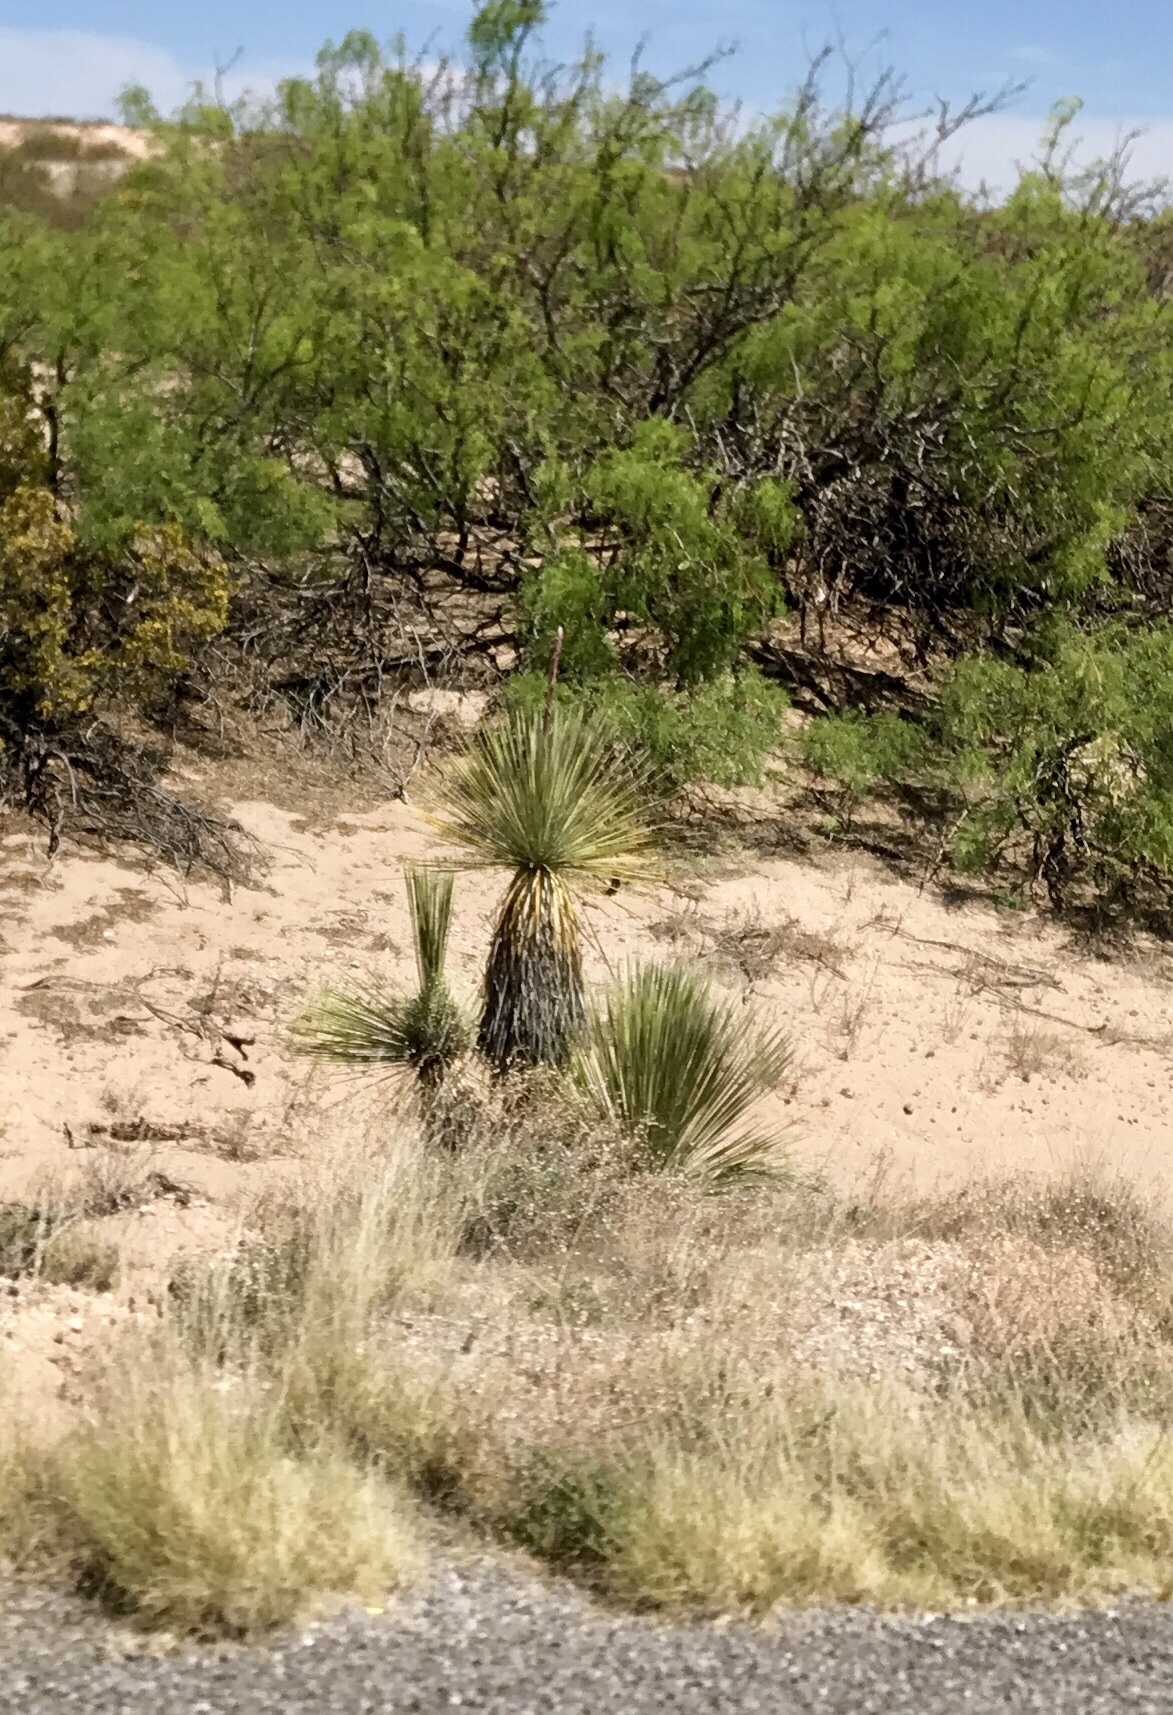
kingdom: Plantae
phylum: Tracheophyta
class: Liliopsida
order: Asparagales
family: Asparagaceae
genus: Yucca
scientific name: Yucca elata
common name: Palmella
